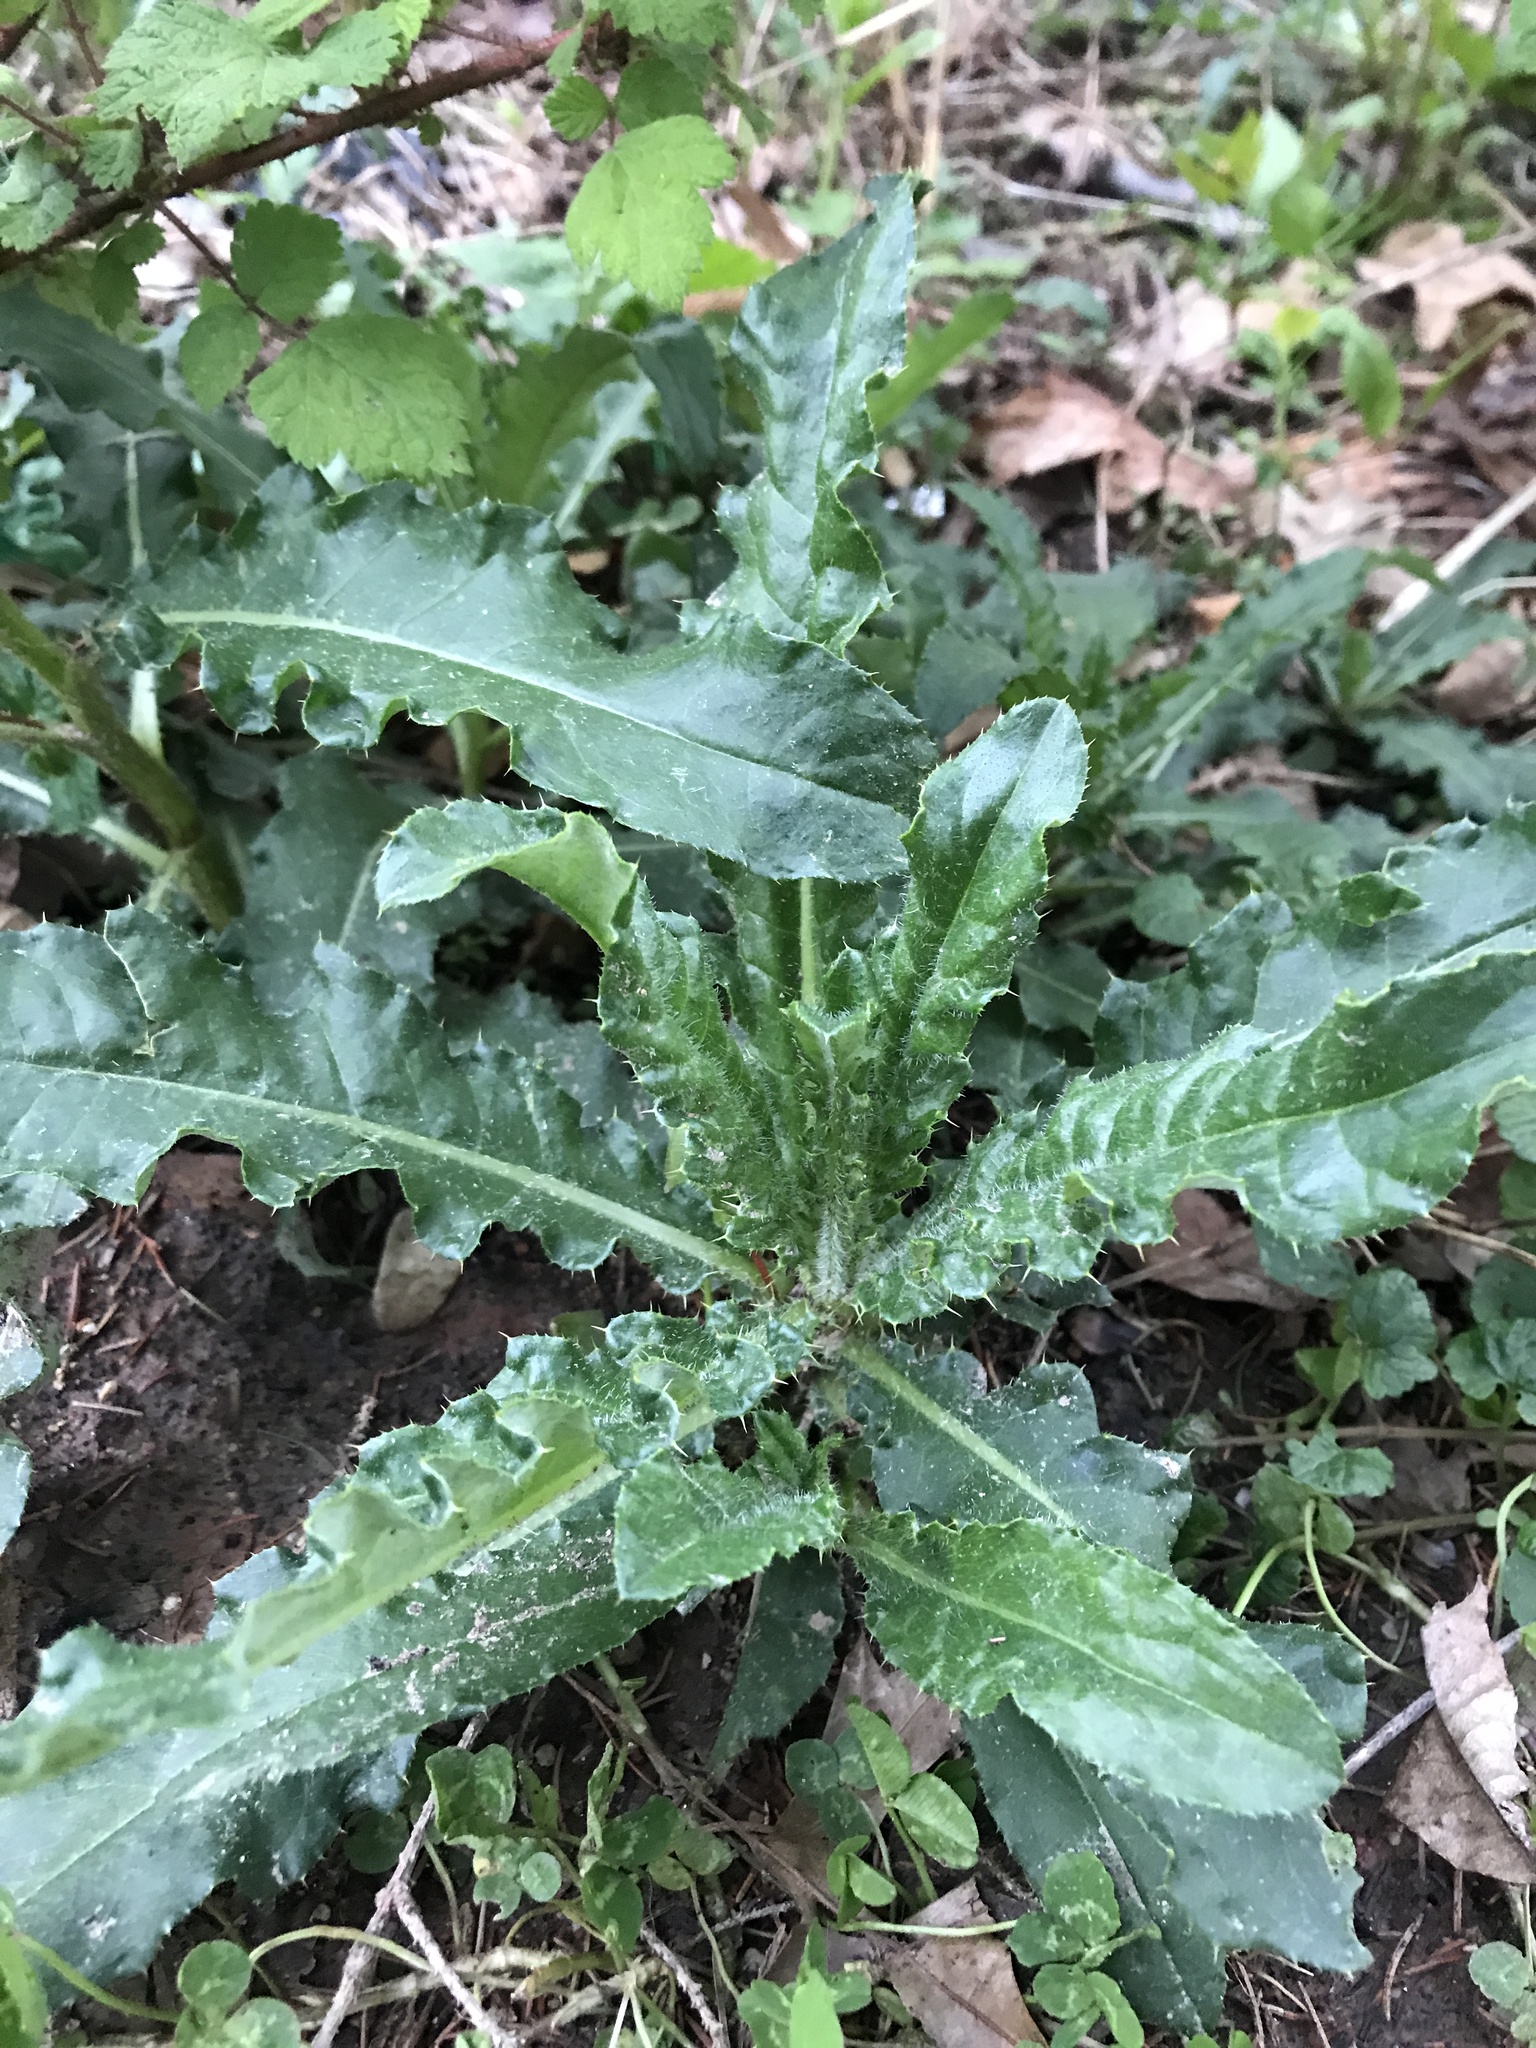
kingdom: Plantae
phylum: Tracheophyta
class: Magnoliopsida
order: Asterales
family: Asteraceae
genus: Sonchus
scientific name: Sonchus asper
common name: Prickly sow-thistle
